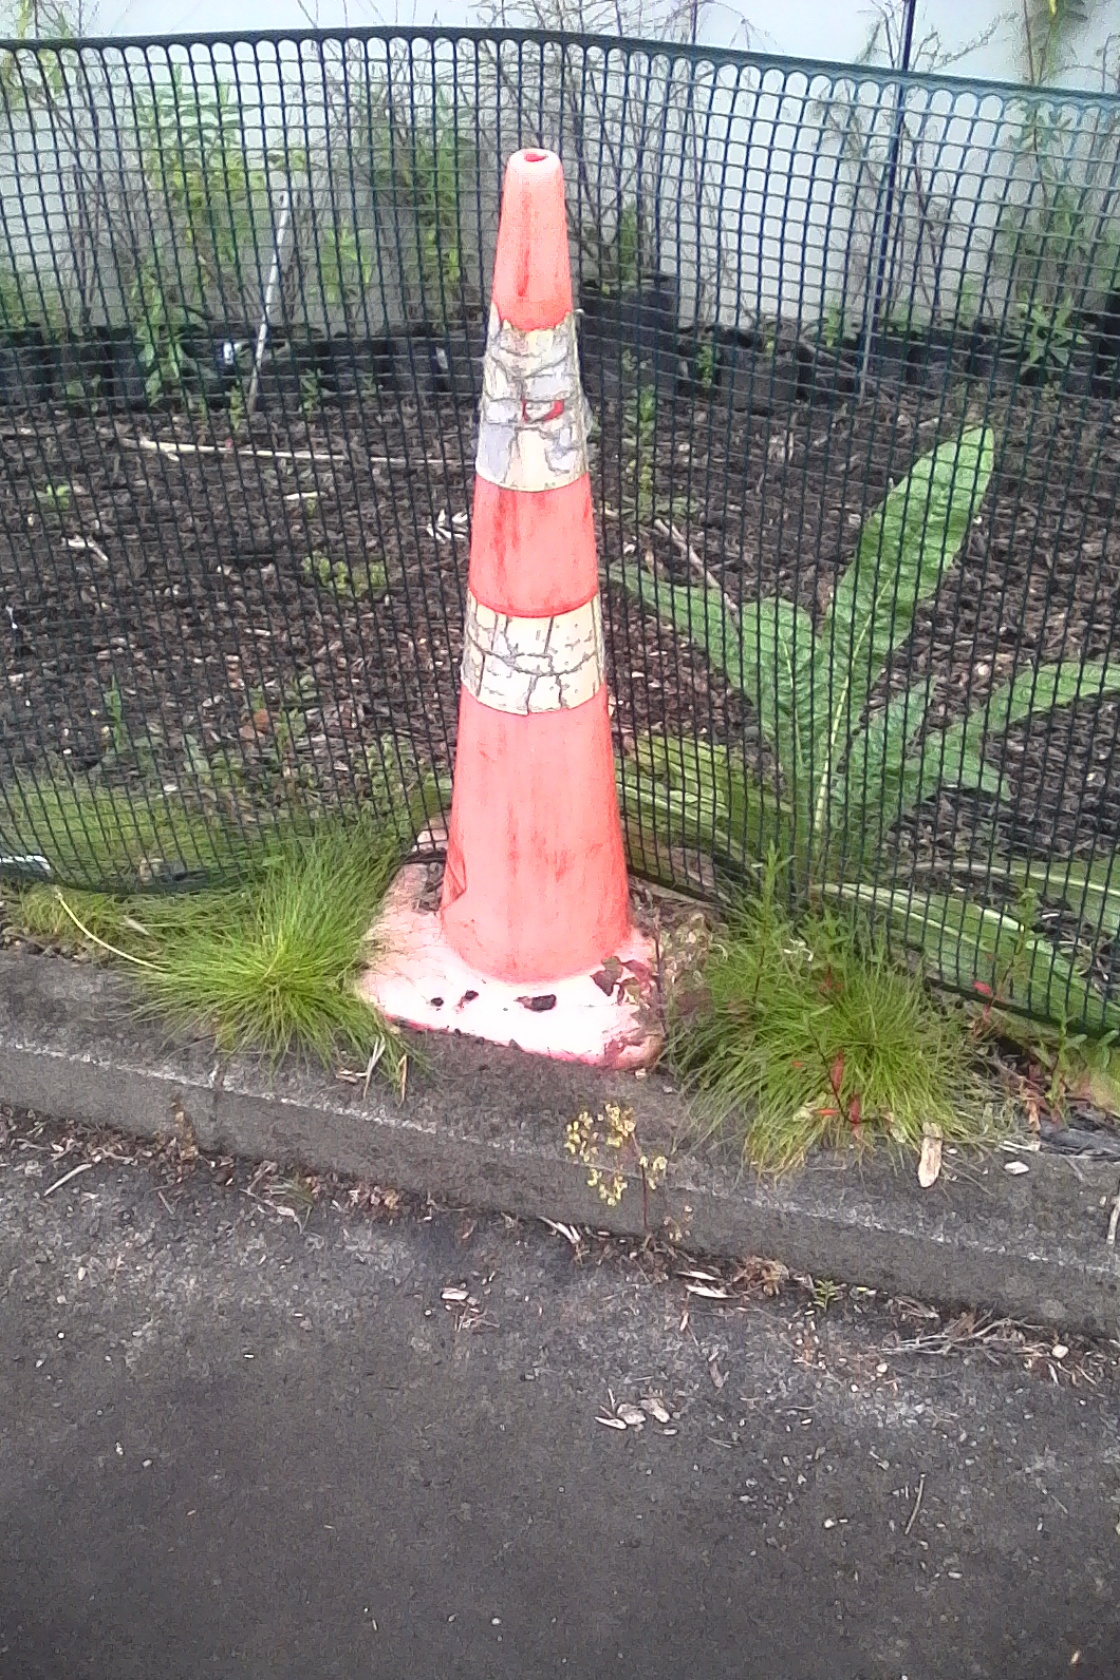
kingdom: Plantae
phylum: Tracheophyta
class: Liliopsida
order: Poales
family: Cyperaceae
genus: Isolepis
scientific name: Isolepis sepulcralis
